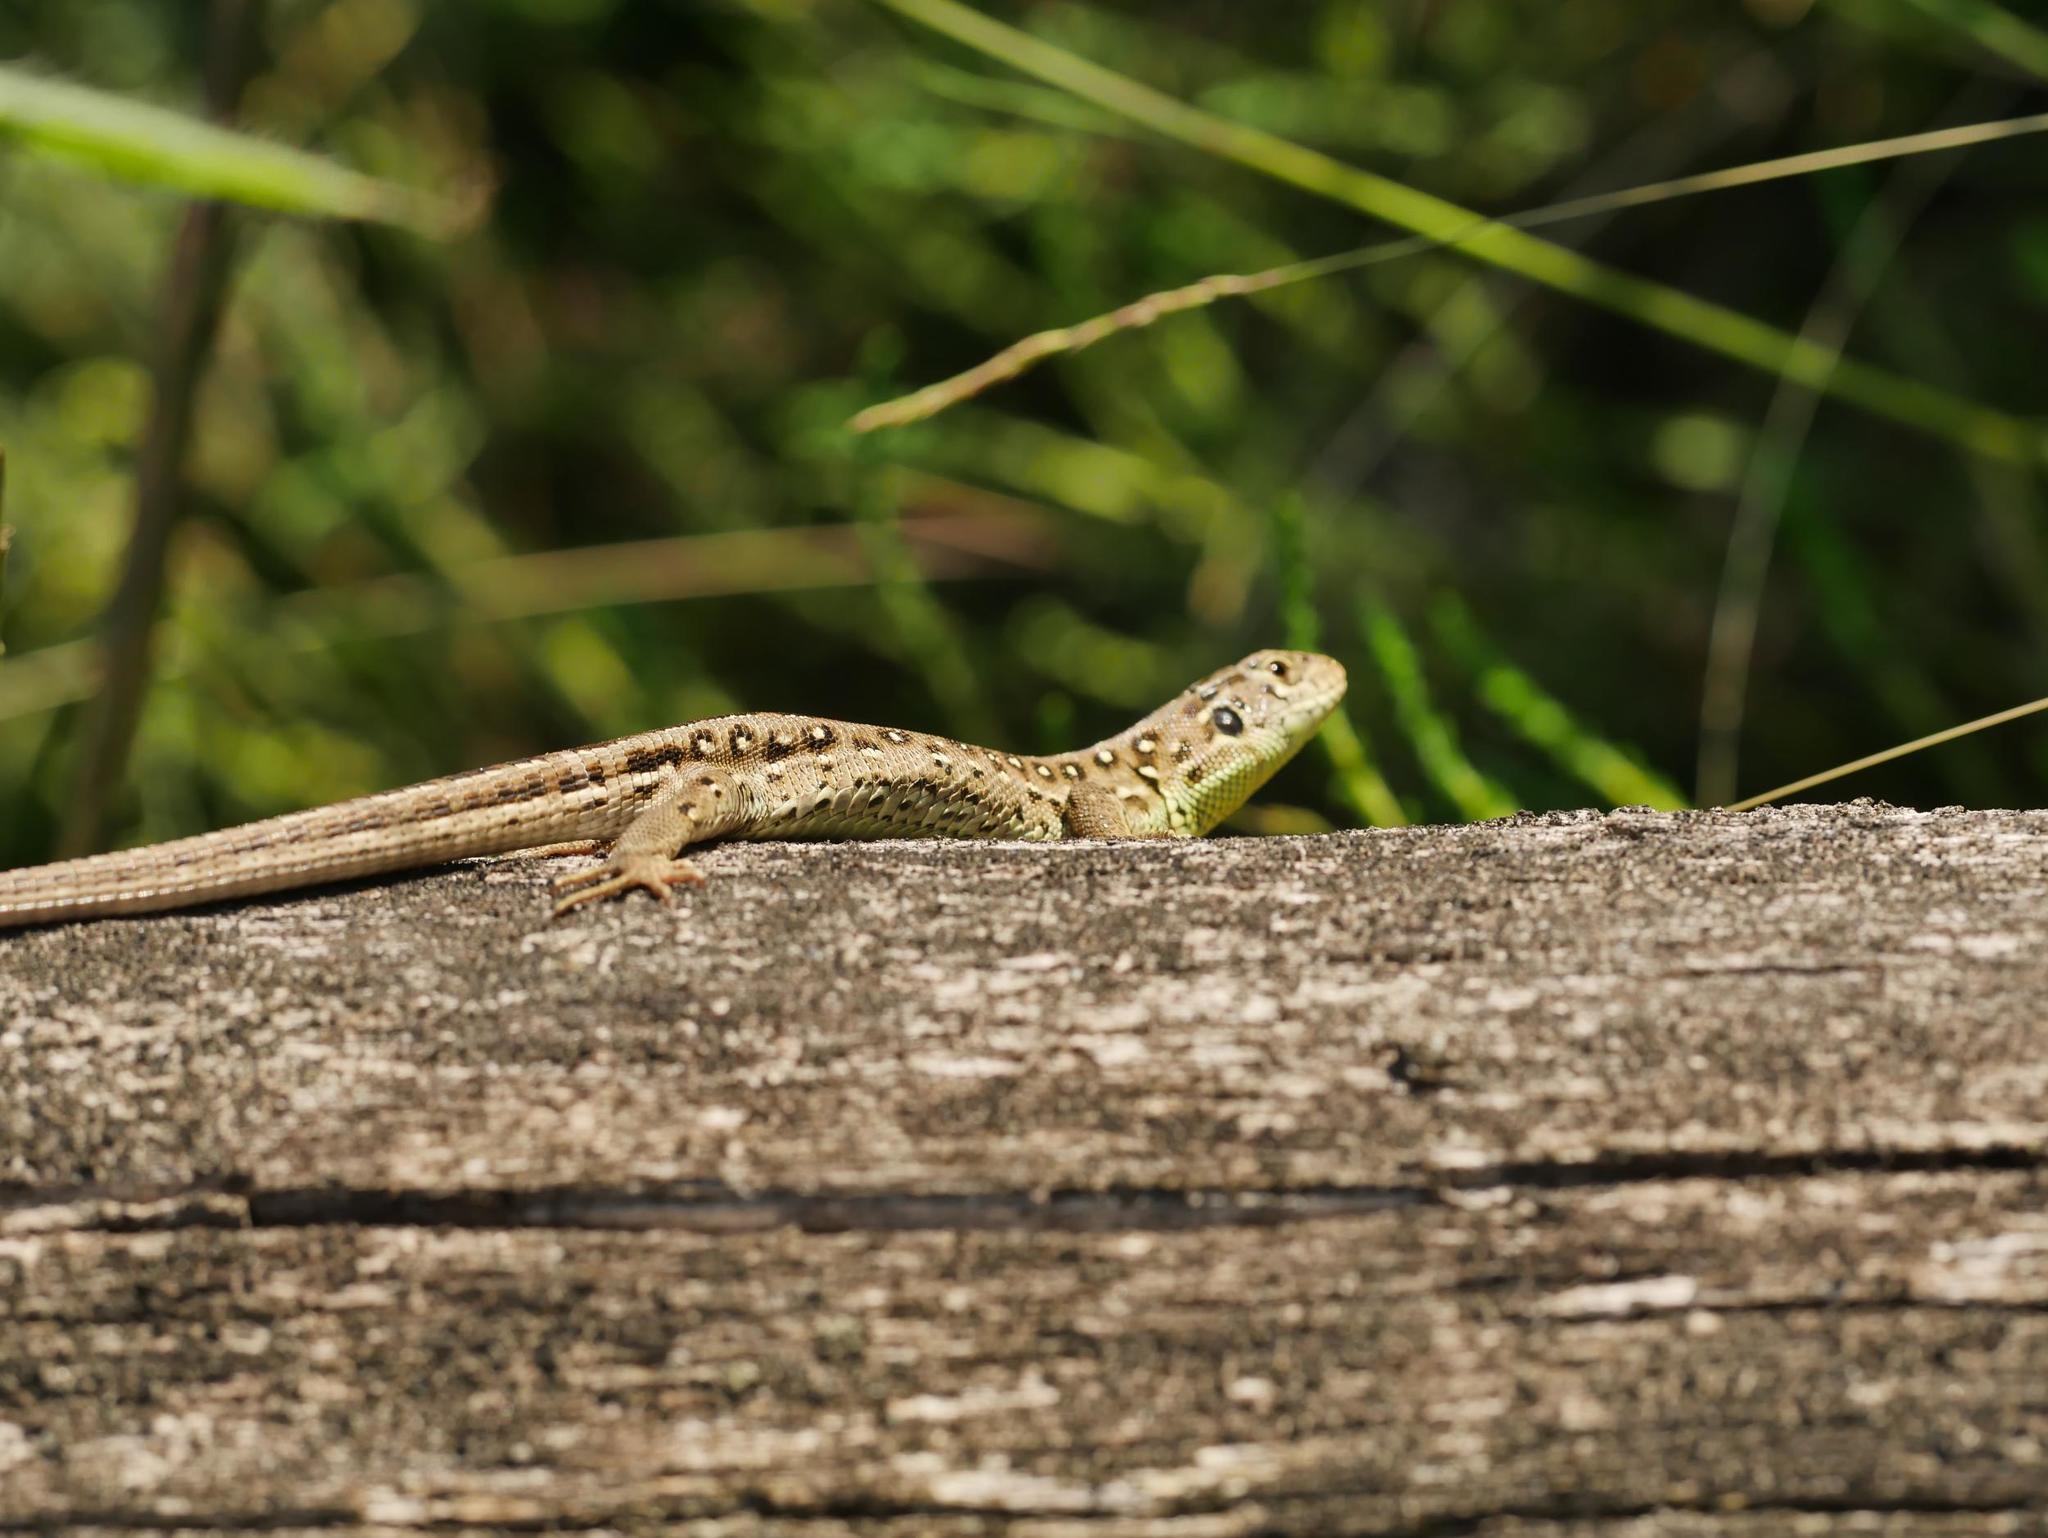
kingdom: Animalia
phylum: Chordata
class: Squamata
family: Lacertidae
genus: Lacerta
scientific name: Lacerta agilis
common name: Sand lizard
